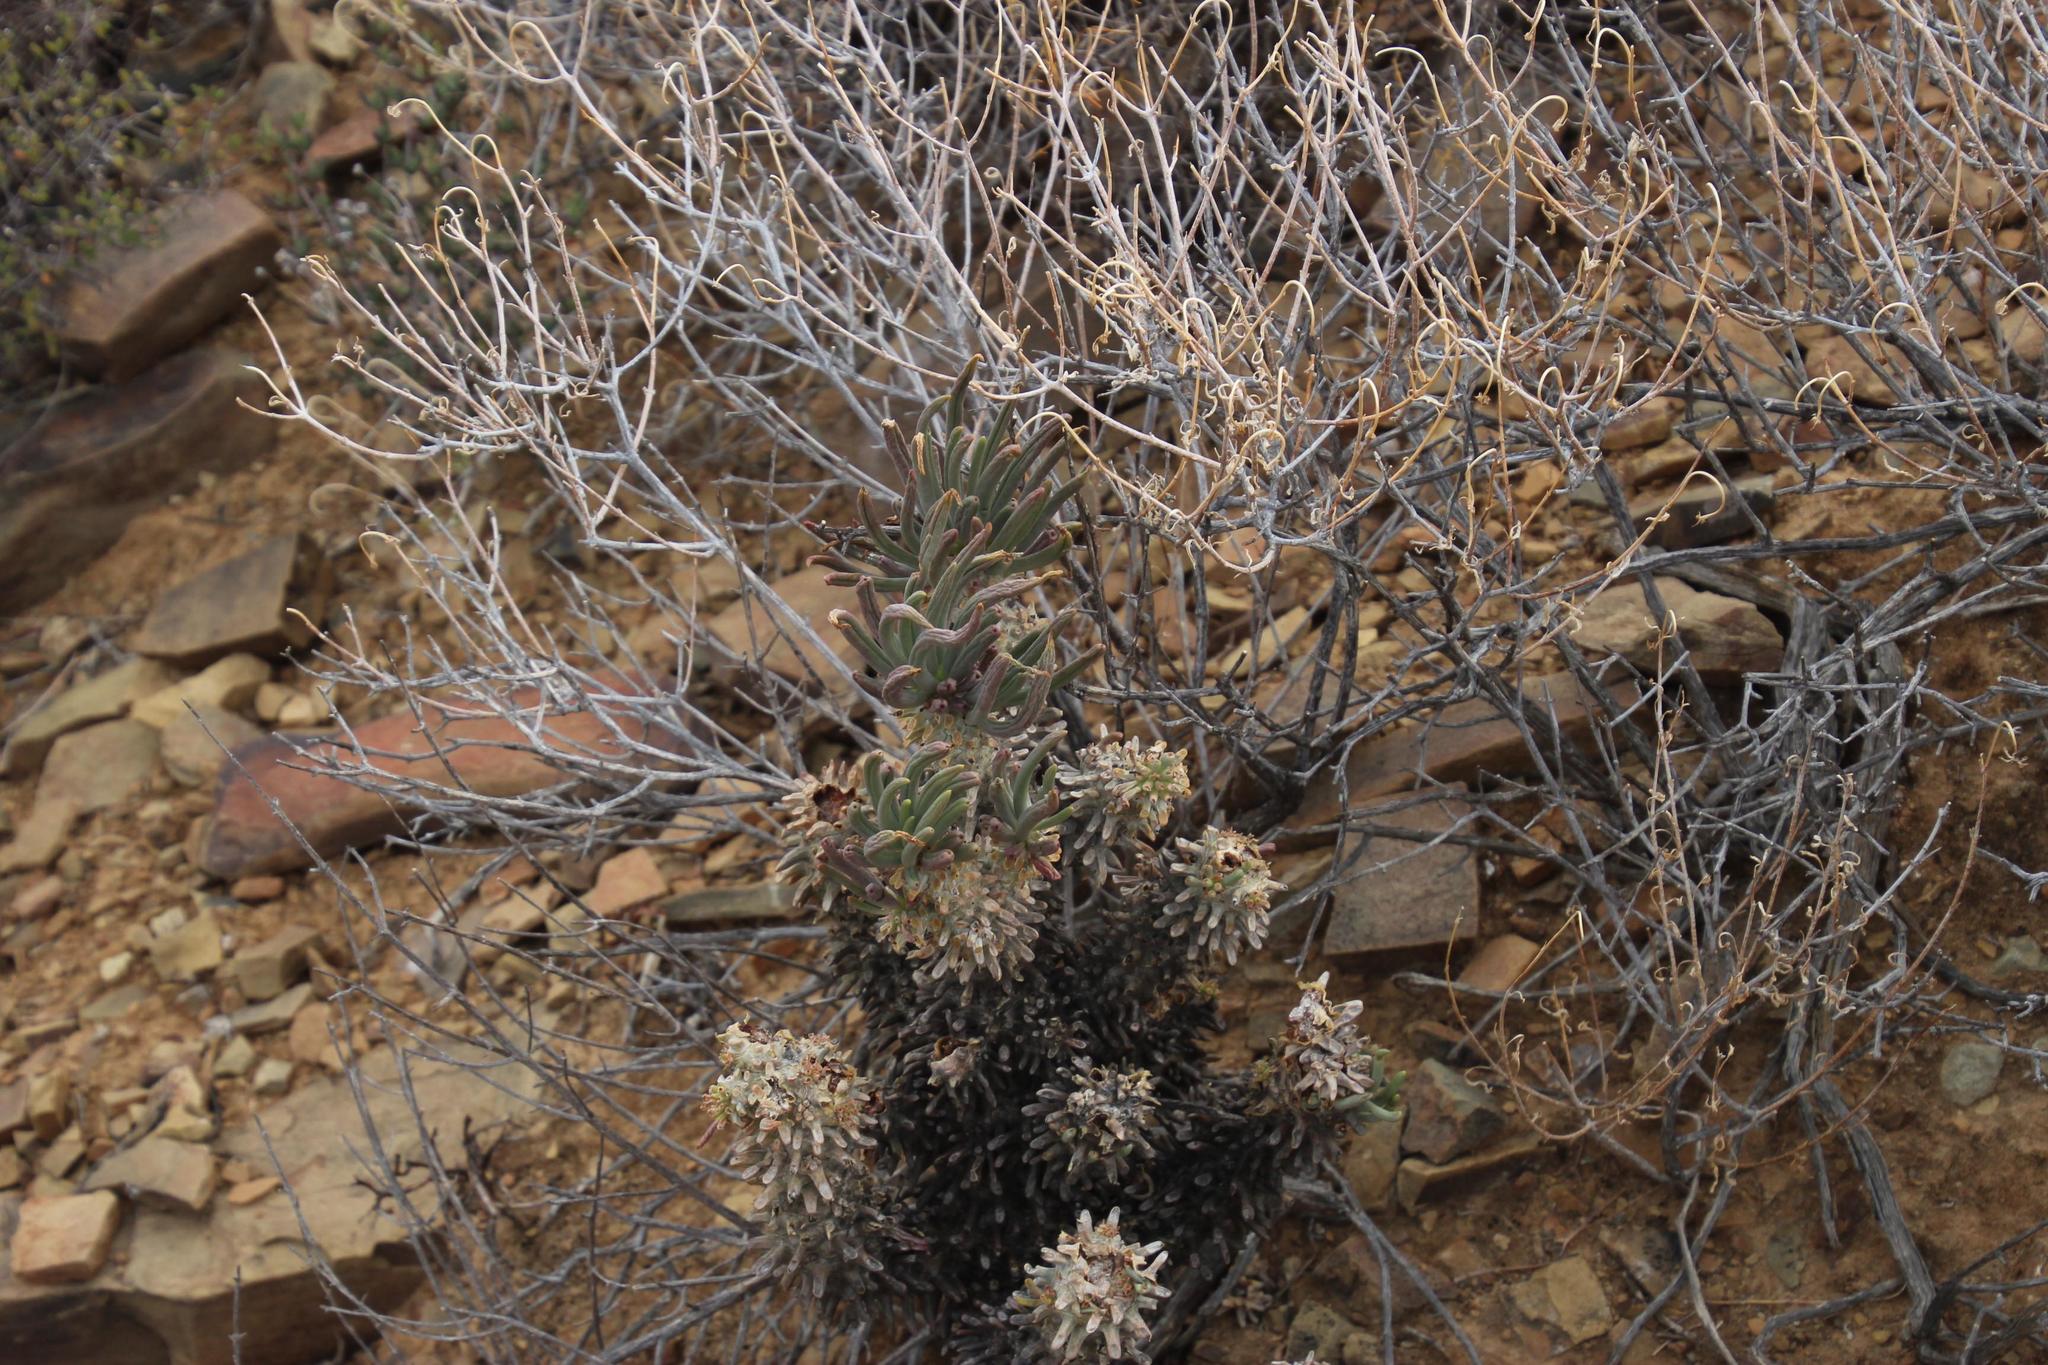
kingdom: Plantae
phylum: Tracheophyta
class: Magnoliopsida
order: Saxifragales
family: Crassulaceae
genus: Tylecodon
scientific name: Tylecodon wallichii
